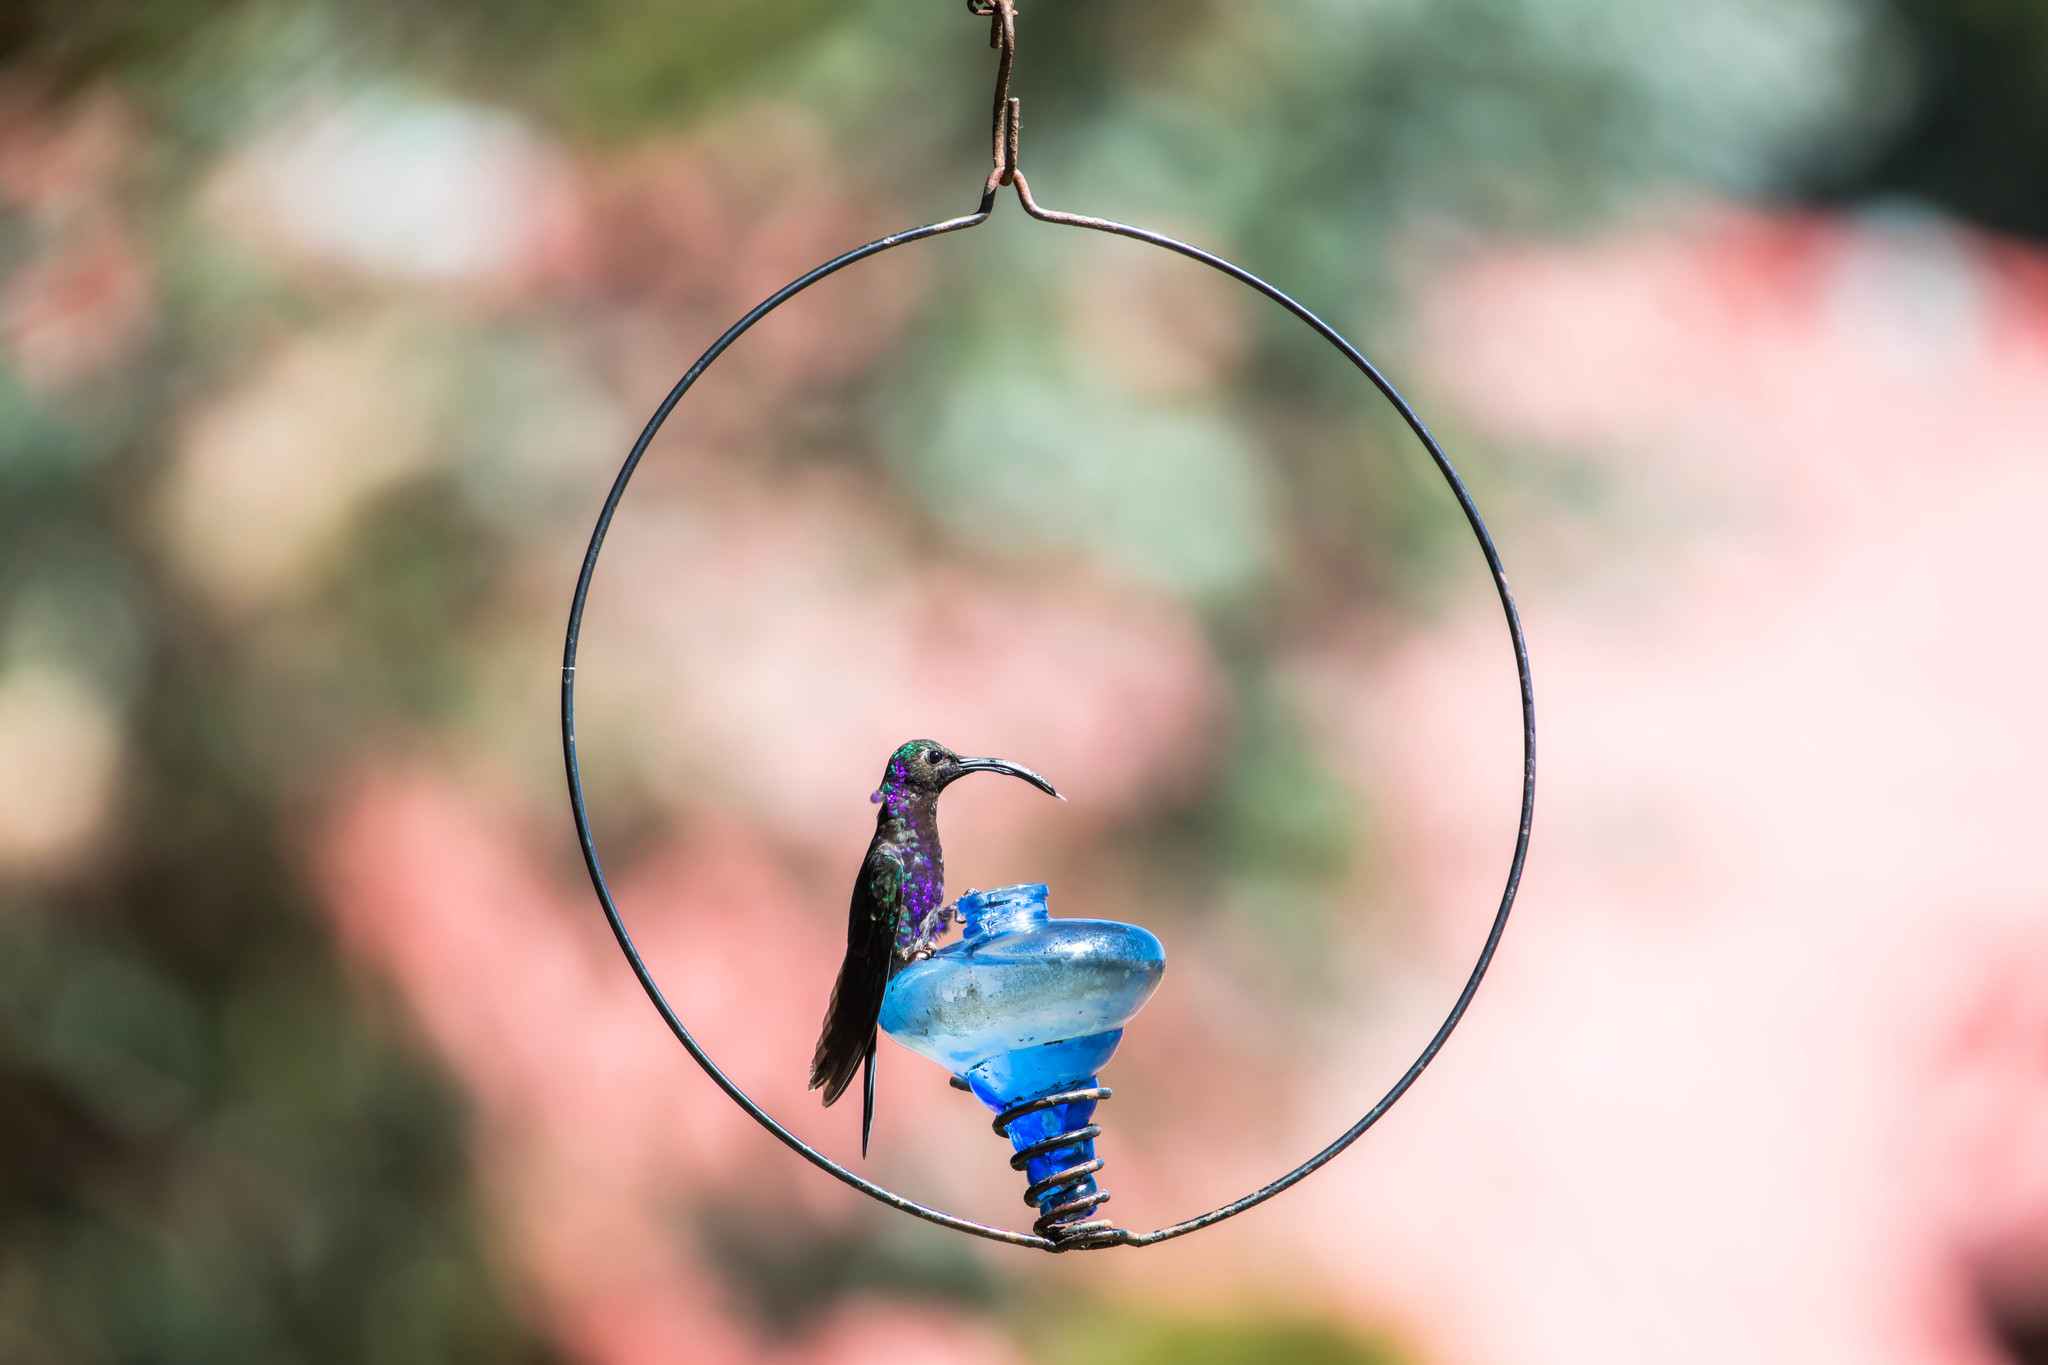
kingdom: Animalia
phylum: Chordata
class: Aves
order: Apodiformes
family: Trochilidae
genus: Campylopterus
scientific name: Campylopterus hemileucurus
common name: Violet sabrewing
